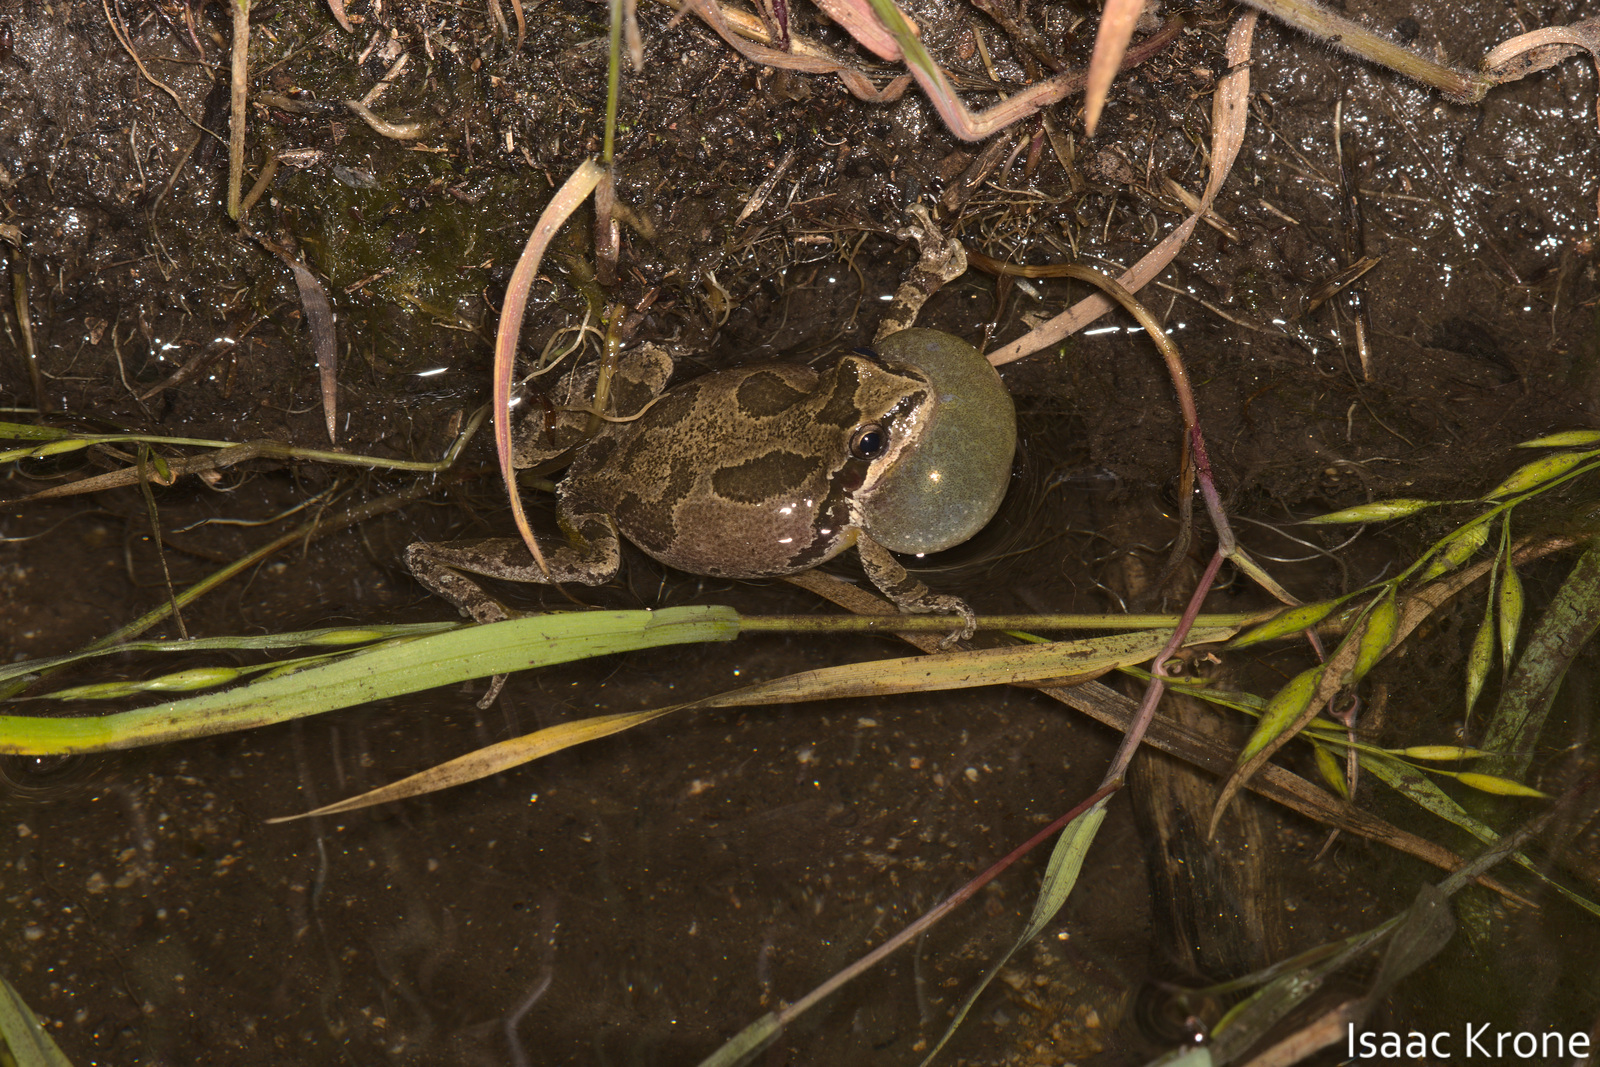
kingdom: Animalia
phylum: Chordata
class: Amphibia
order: Anura
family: Hylidae
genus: Pseudacris
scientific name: Pseudacris regilla
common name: Pacific chorus frog
